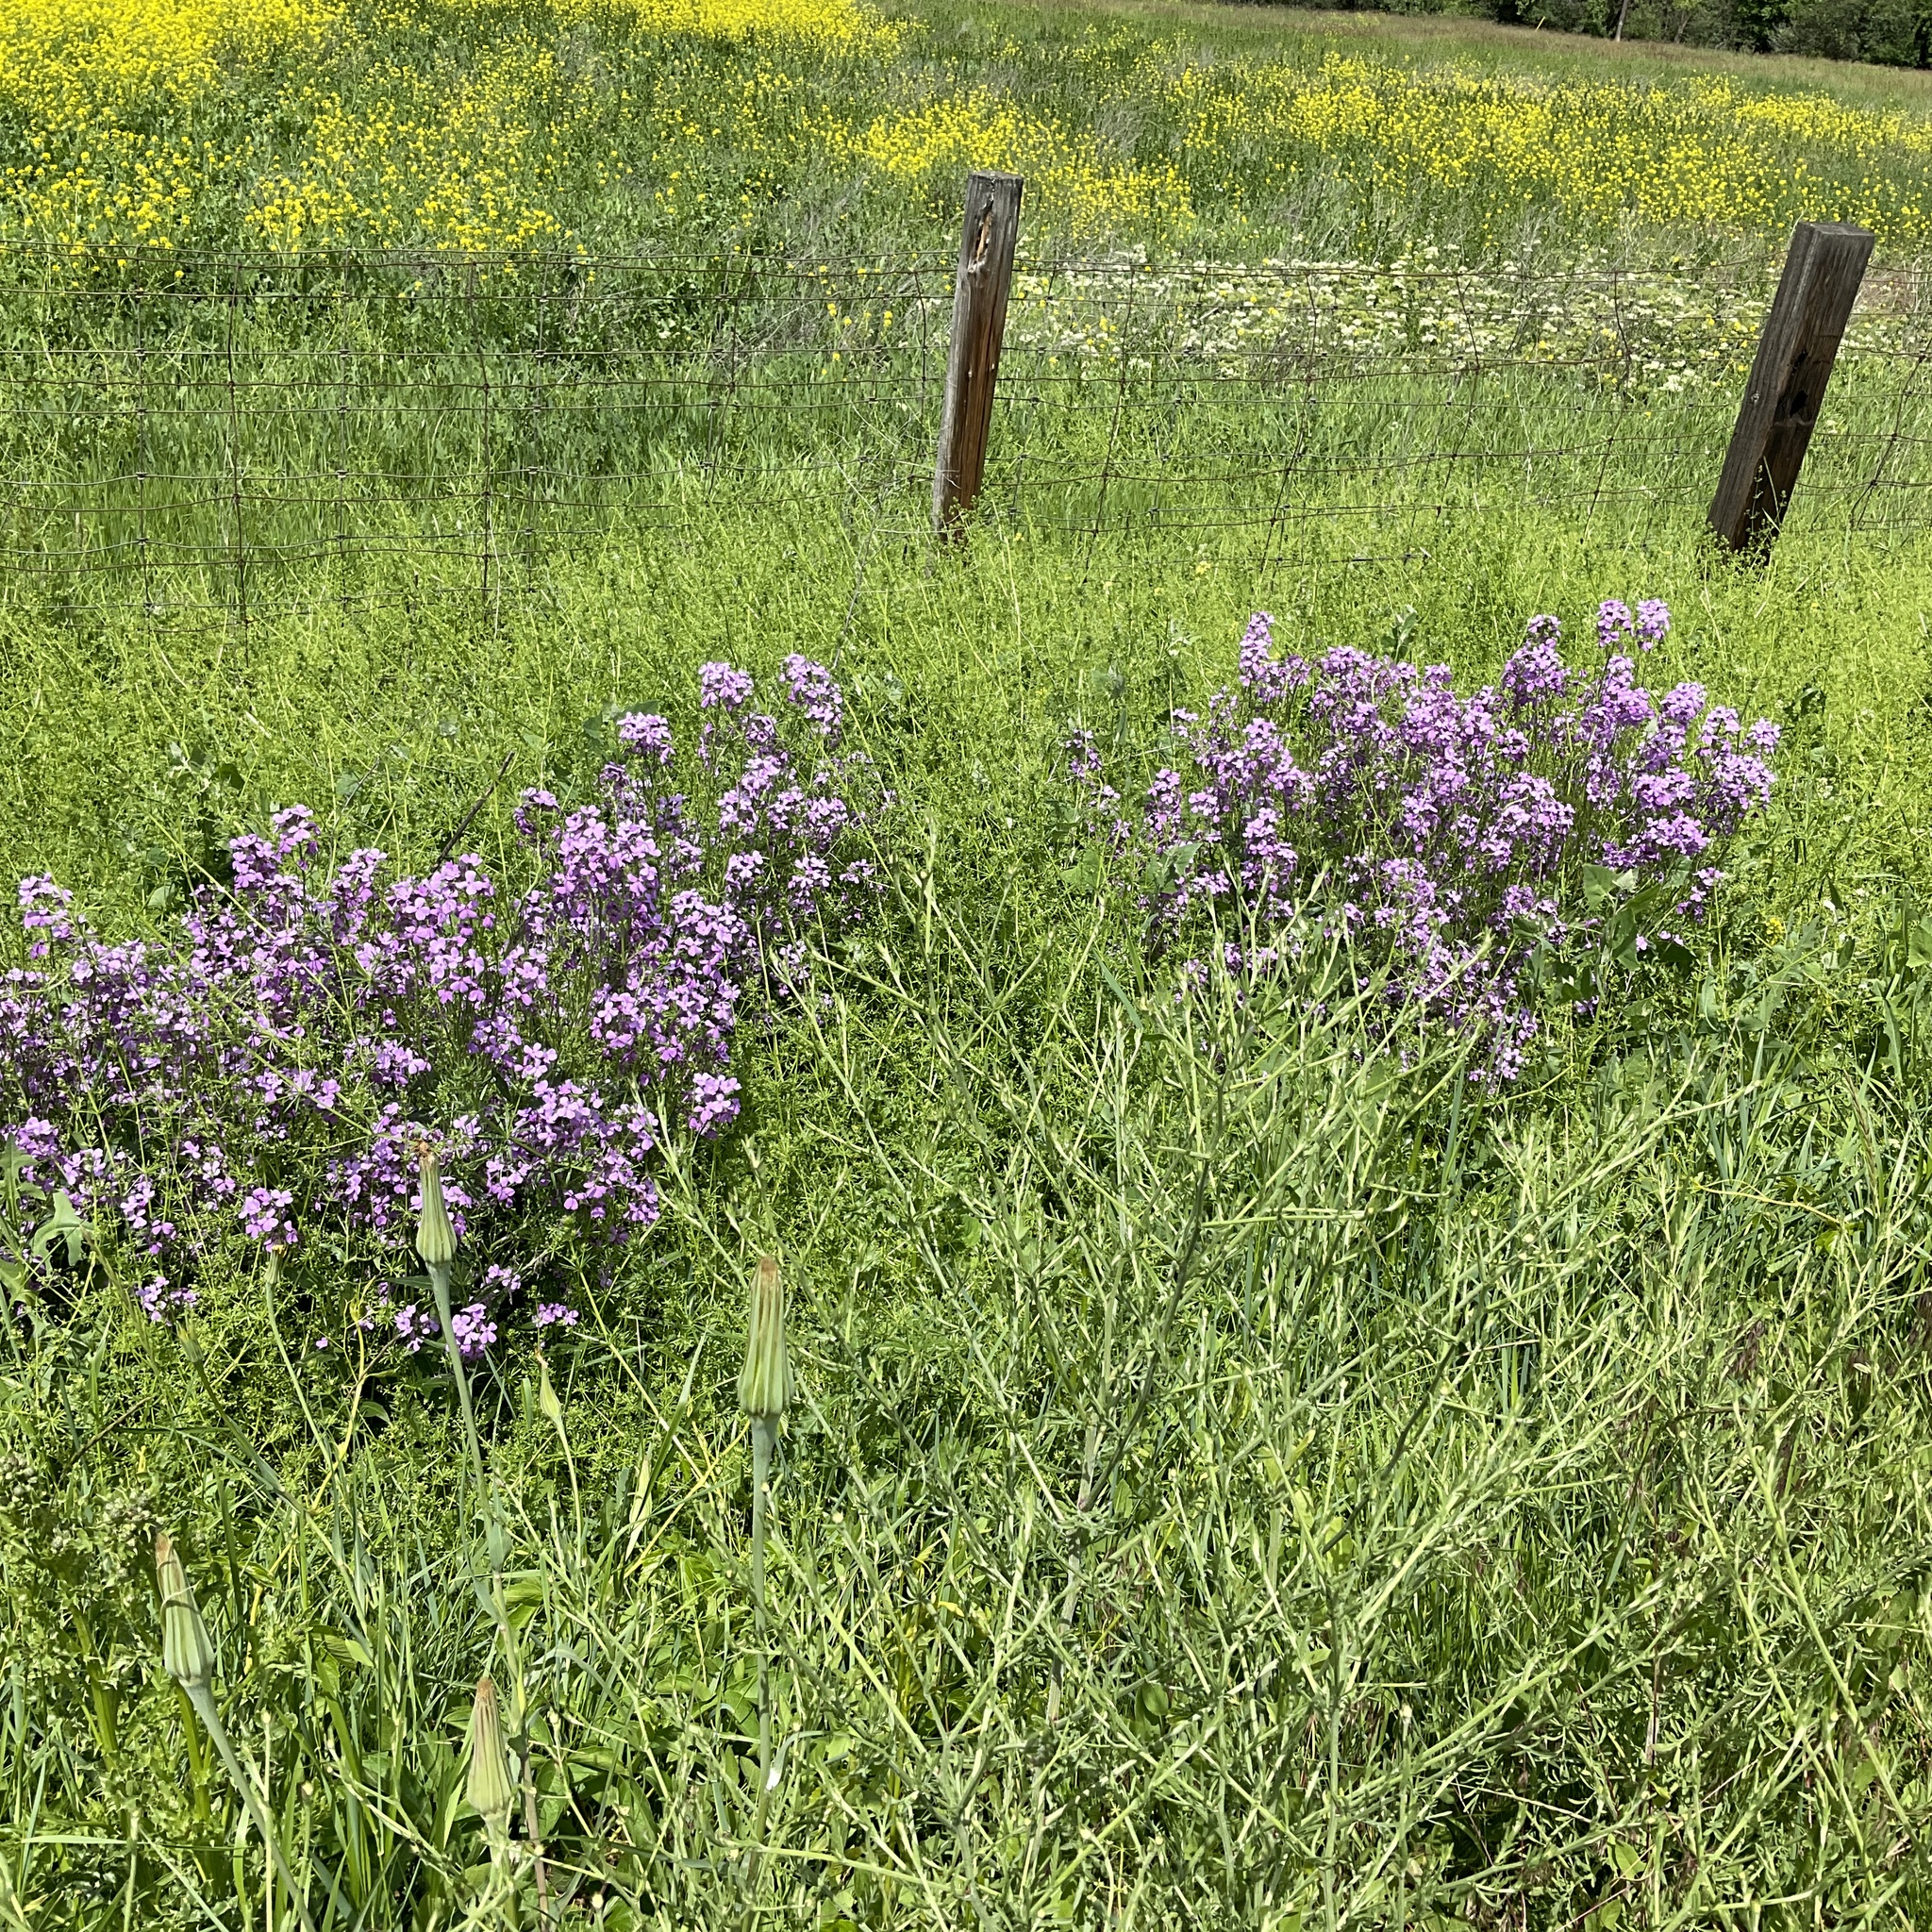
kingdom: Plantae
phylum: Tracheophyta
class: Magnoliopsida
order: Brassicales
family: Brassicaceae
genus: Hesperis
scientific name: Hesperis matronalis
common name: Dame's-violet
